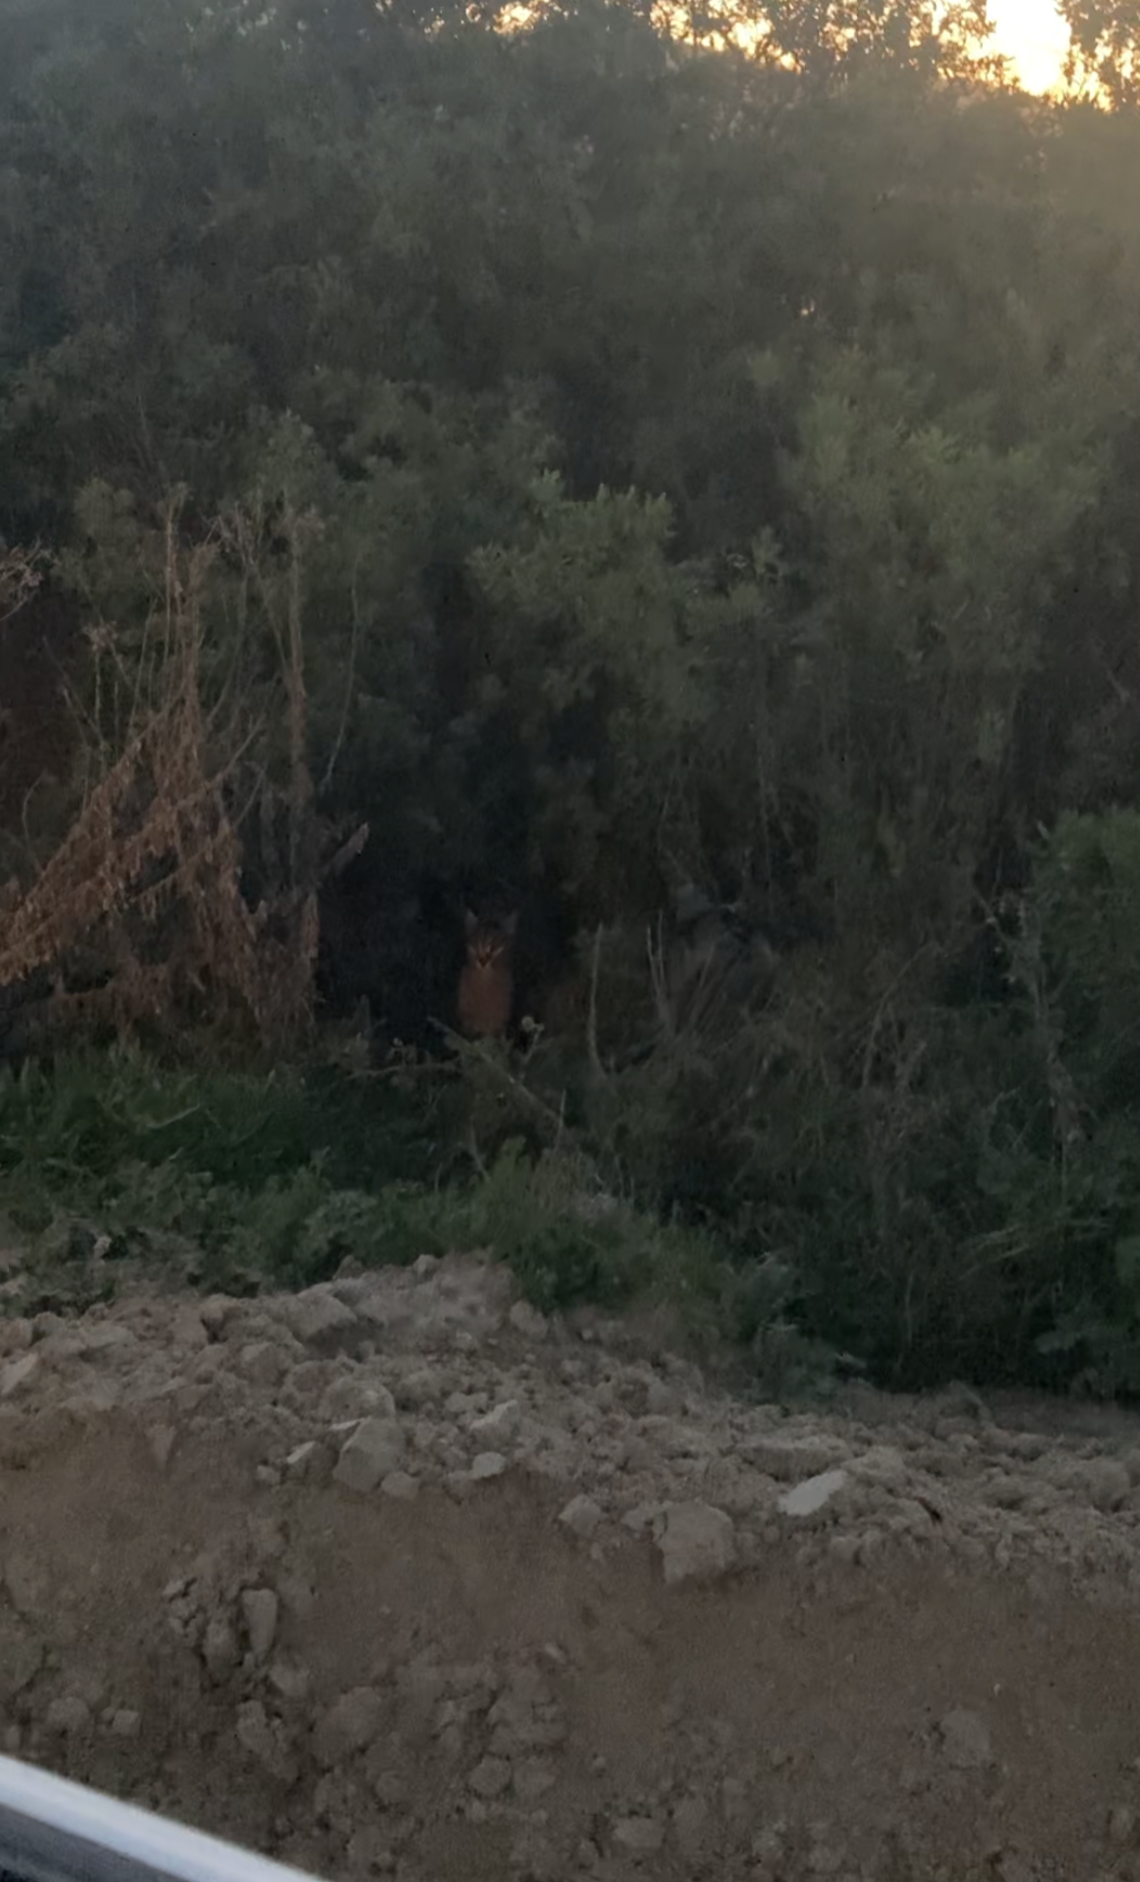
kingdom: Animalia
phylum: Chordata
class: Mammalia
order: Carnivora
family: Felidae
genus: Caracal
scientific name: Caracal caracal
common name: Caracal
